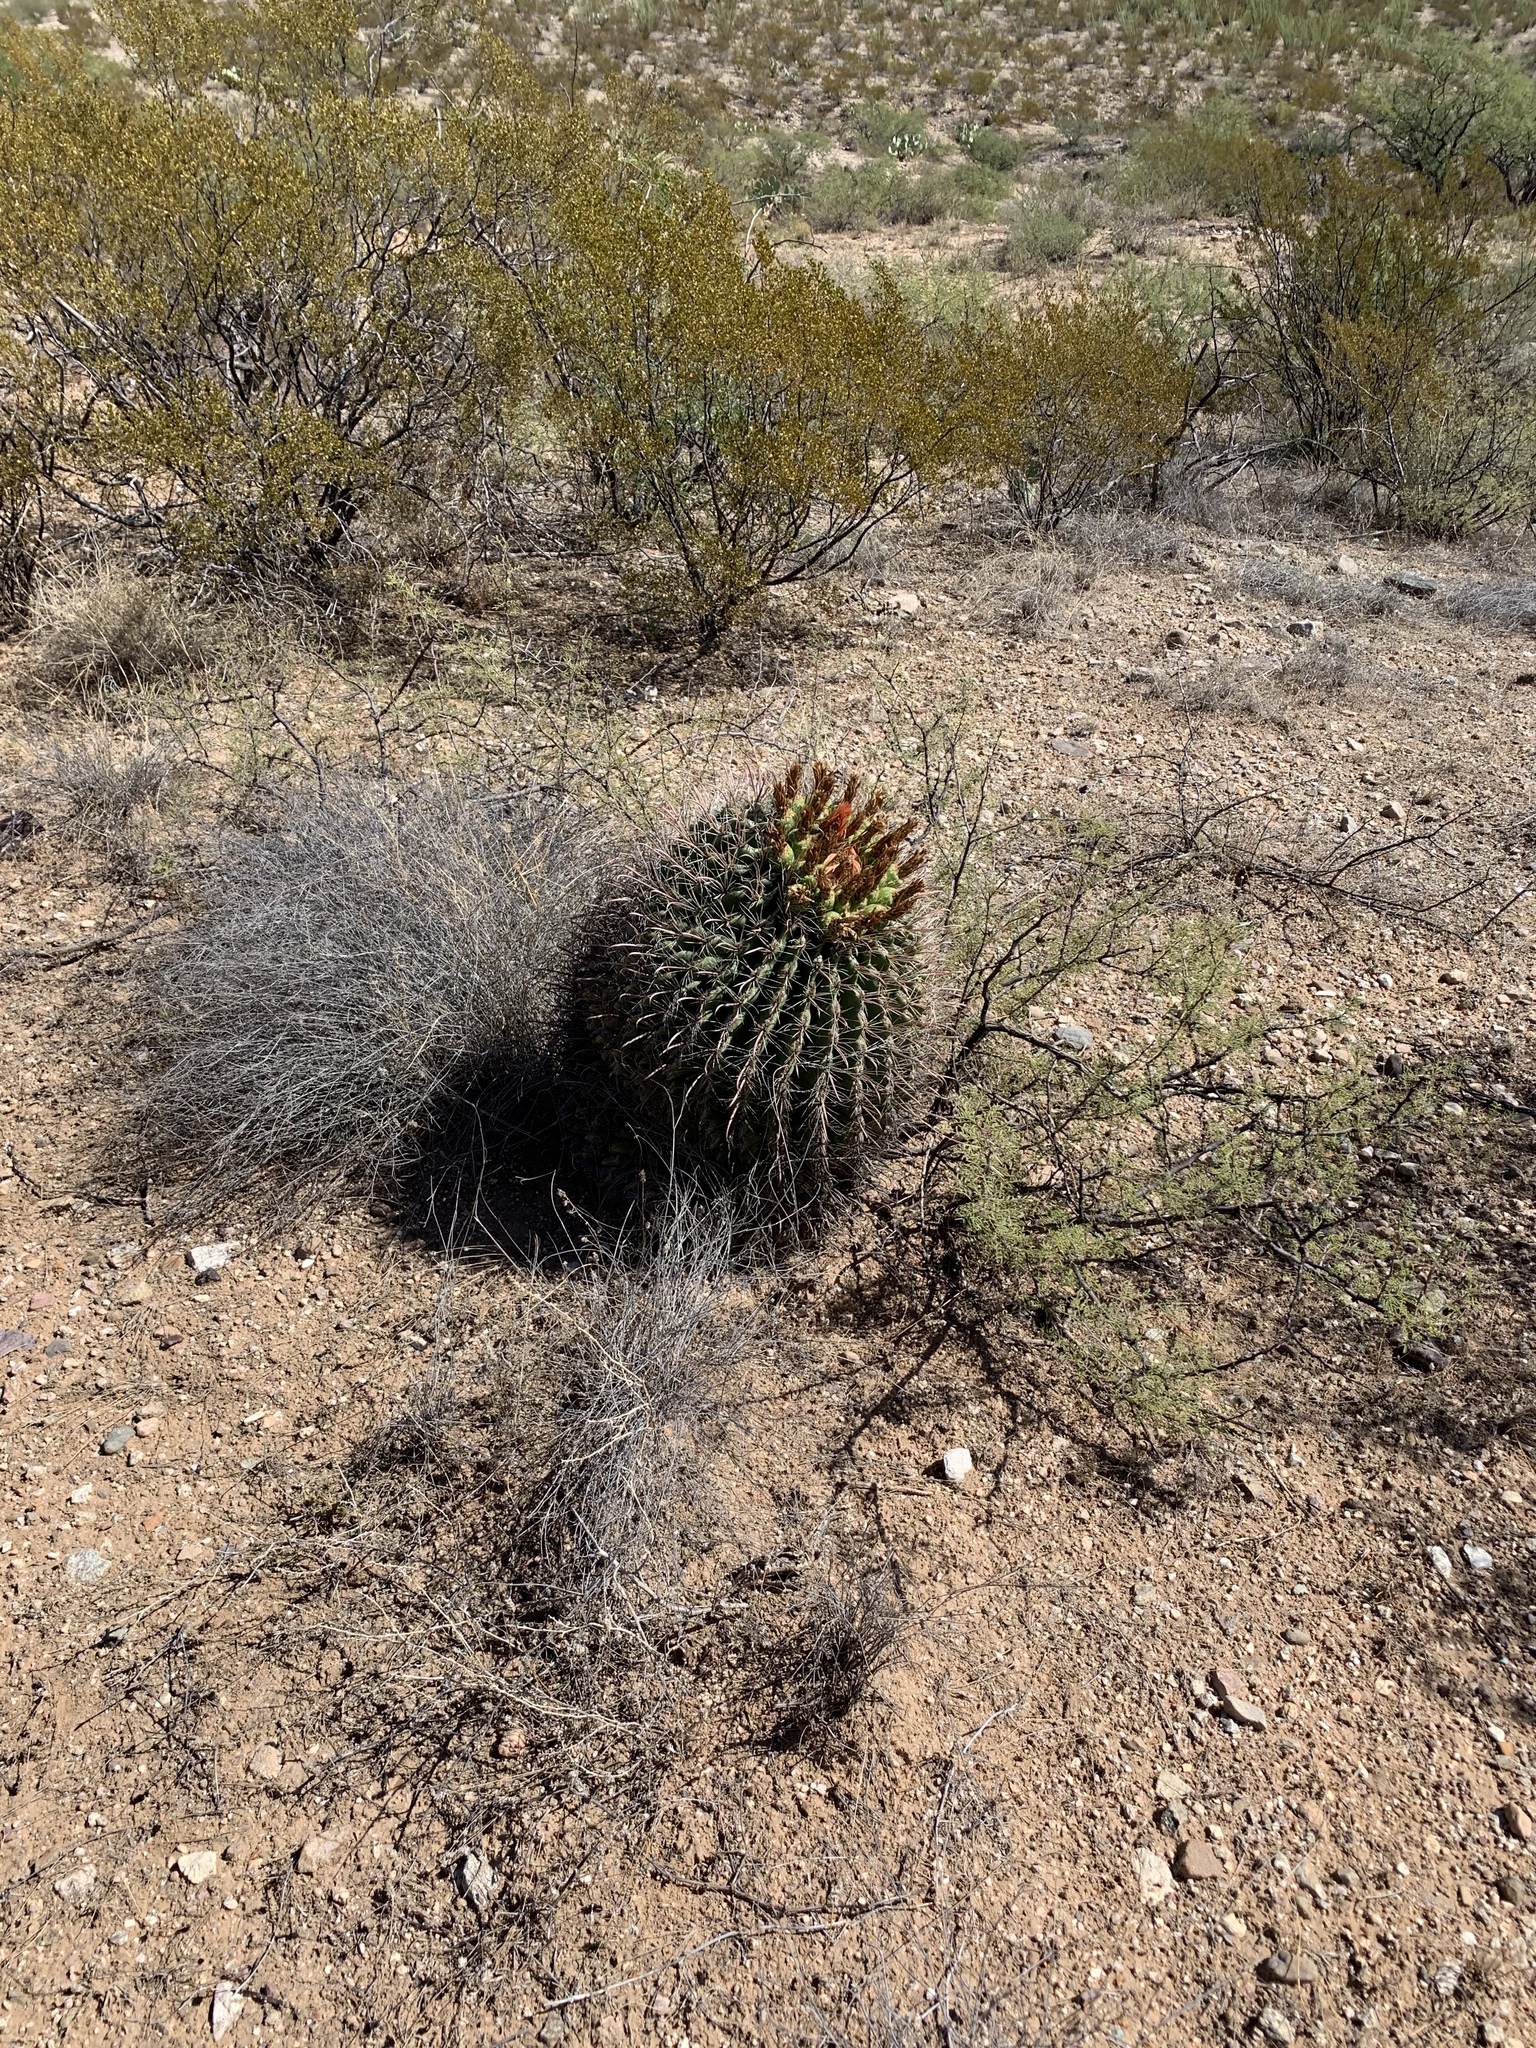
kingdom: Plantae
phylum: Tracheophyta
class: Magnoliopsida
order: Caryophyllales
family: Cactaceae
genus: Ferocactus
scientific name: Ferocactus wislizeni
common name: Candy barrel cactus
